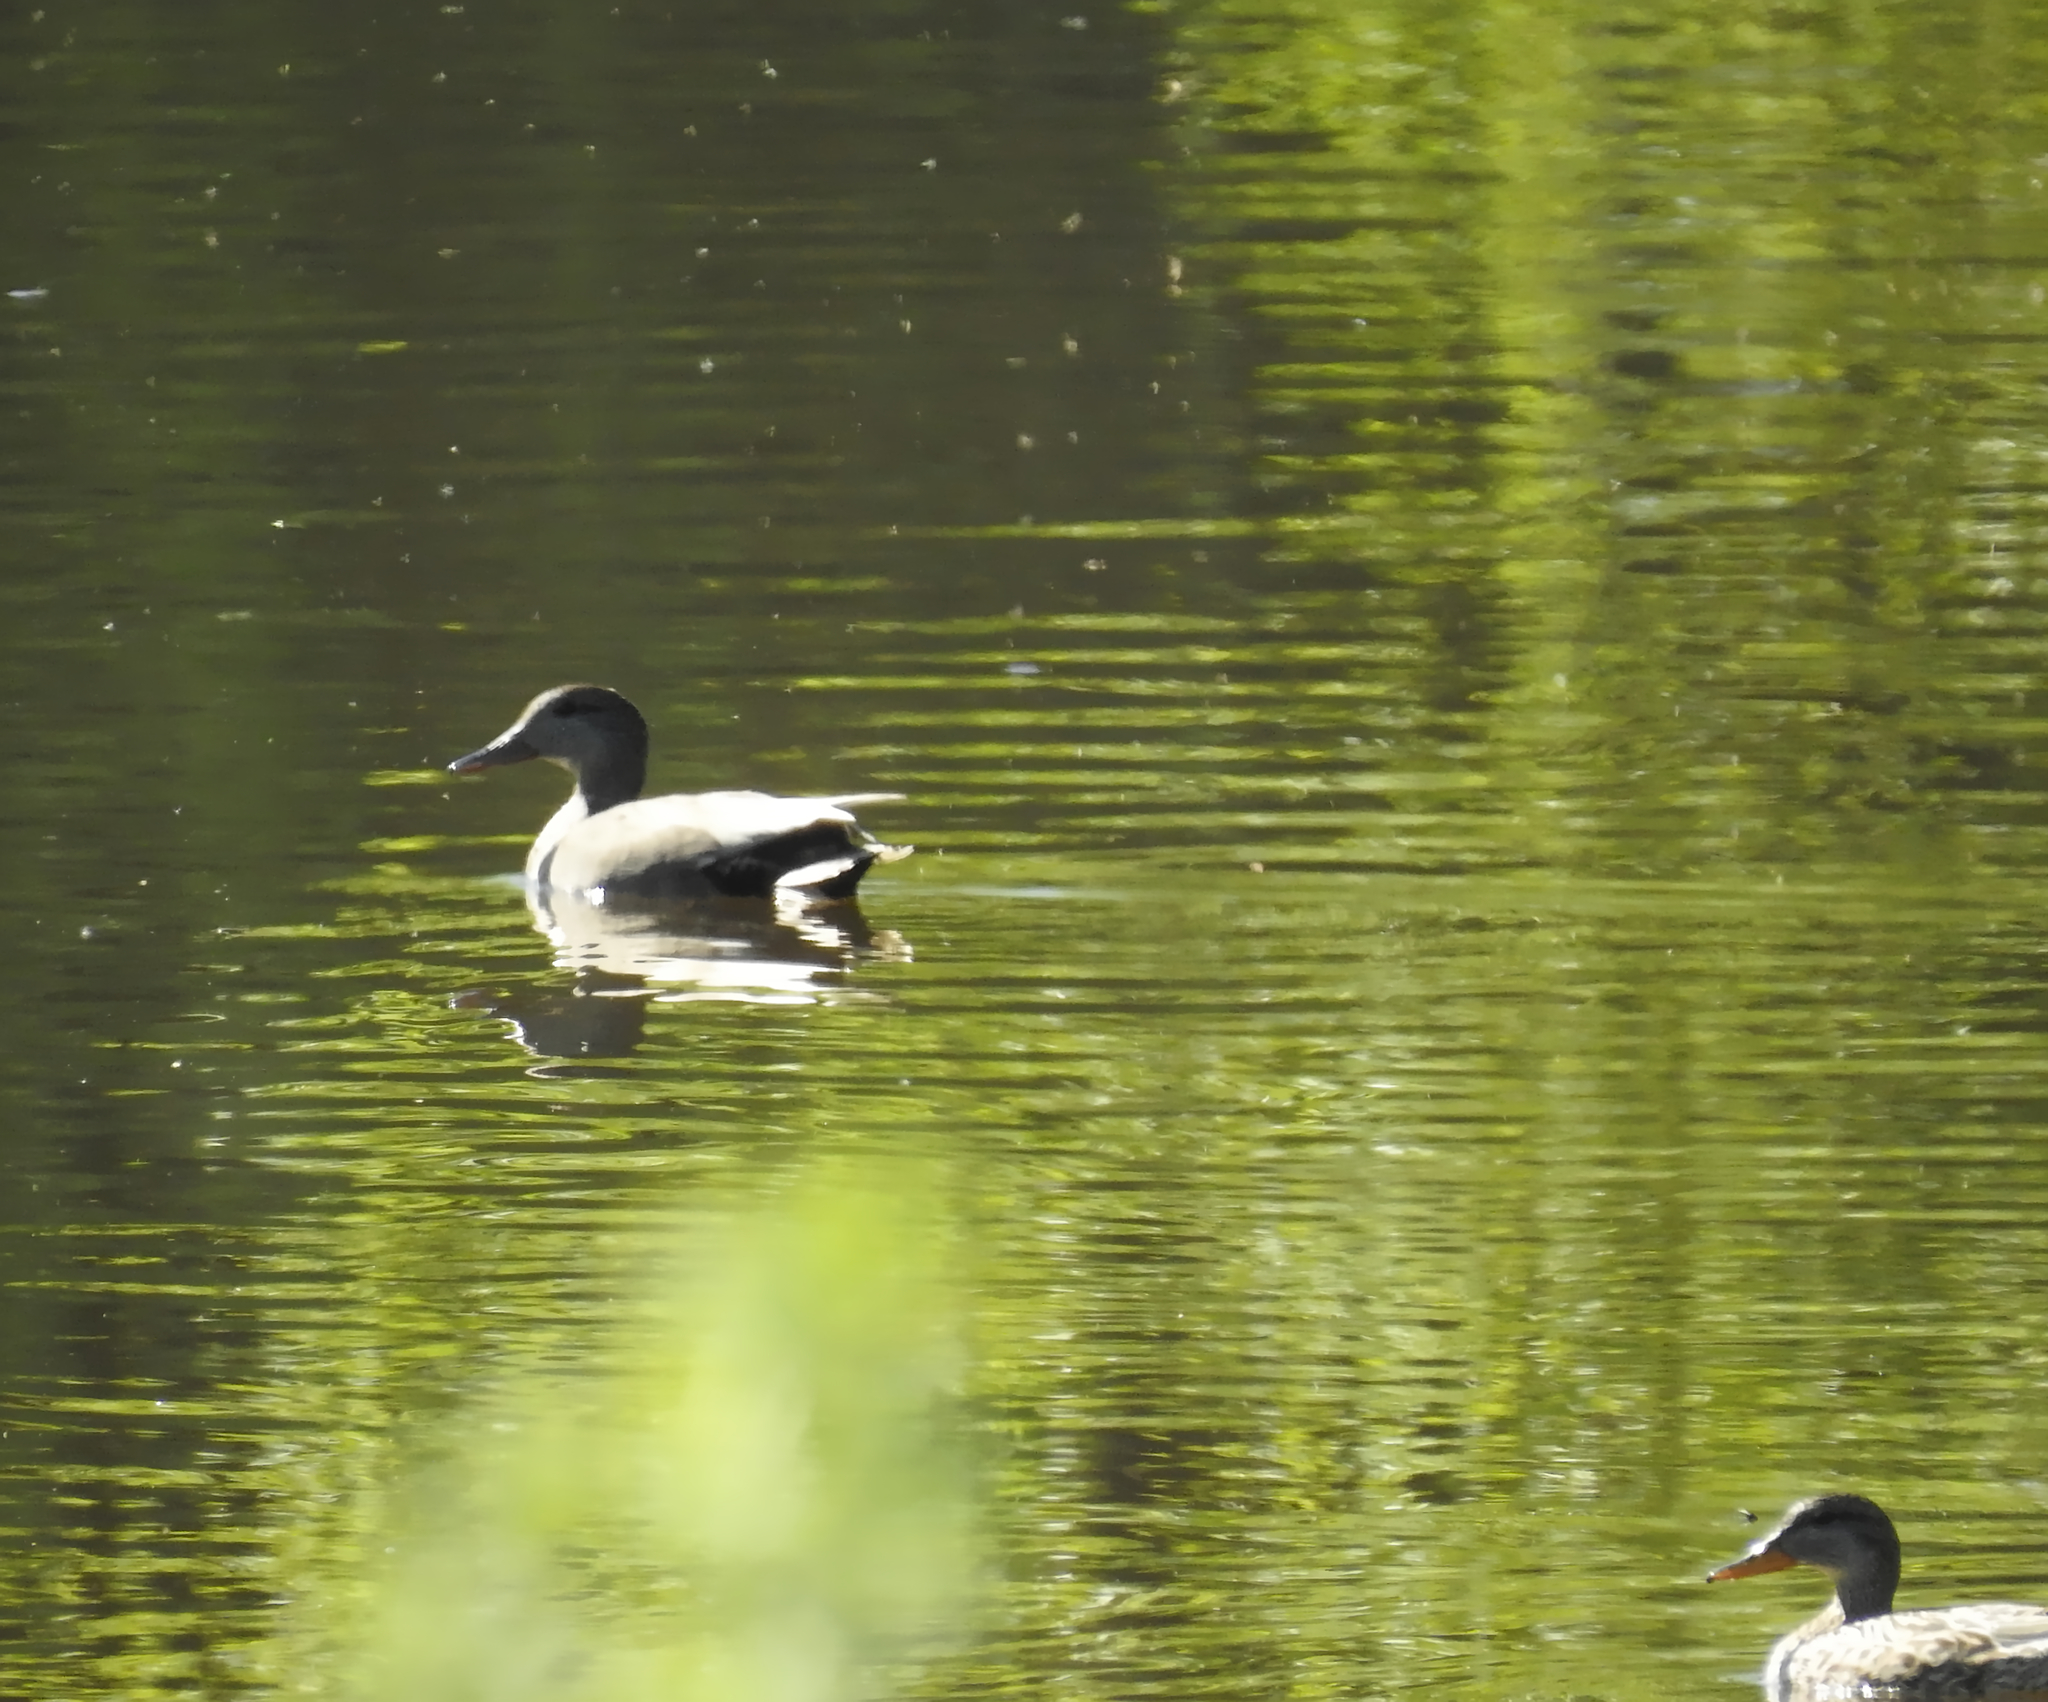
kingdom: Animalia
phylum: Chordata
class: Aves
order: Anseriformes
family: Anatidae
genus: Mareca
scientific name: Mareca strepera
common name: Gadwall
